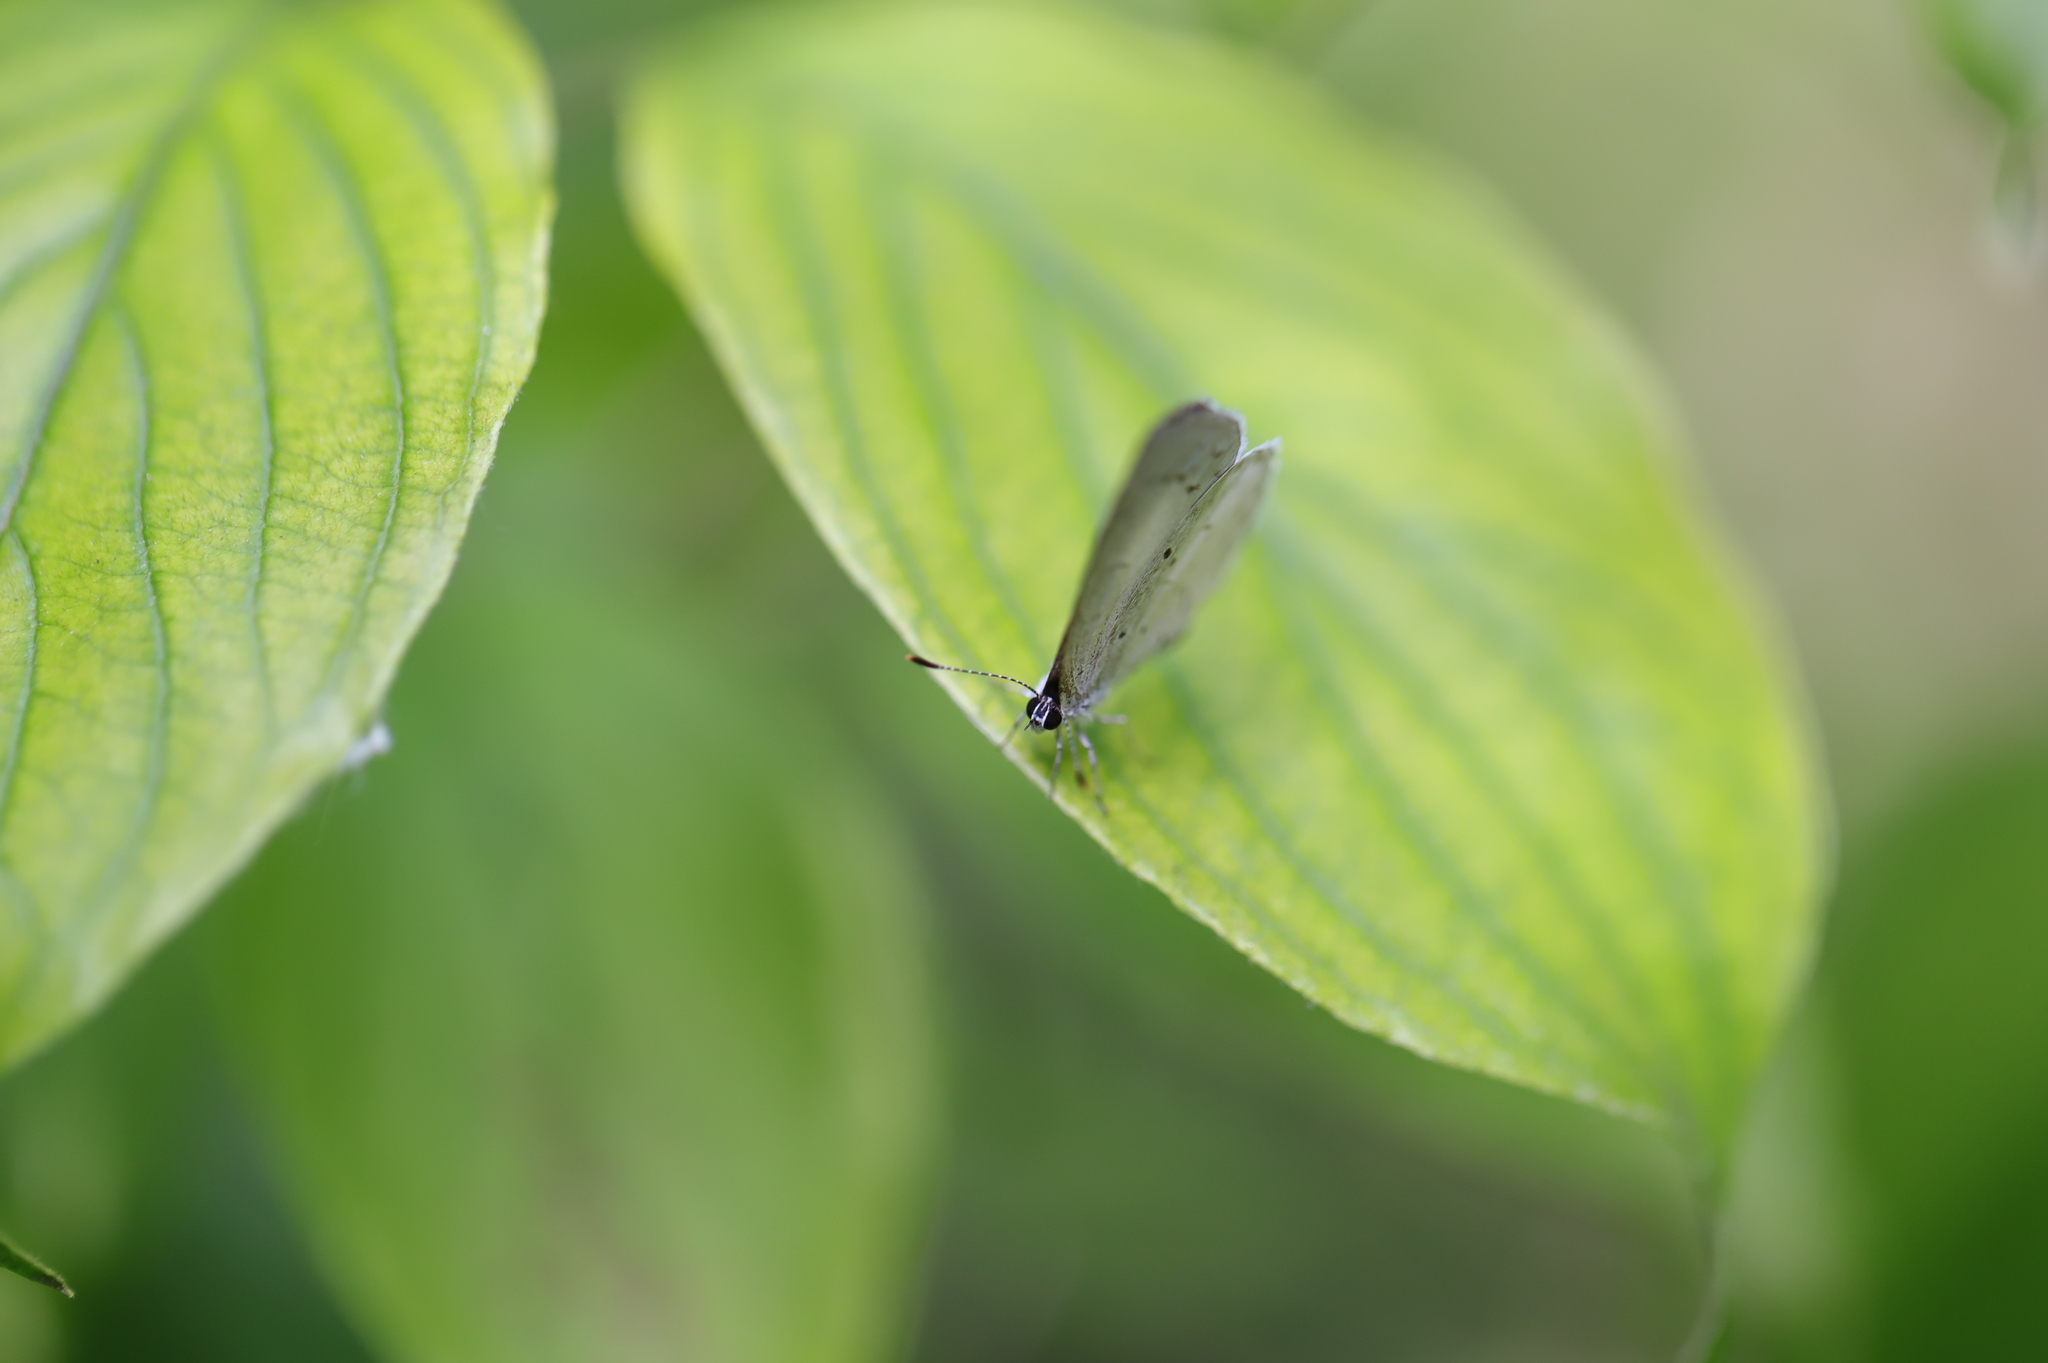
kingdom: Animalia
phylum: Arthropoda
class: Insecta
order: Lepidoptera
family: Lycaenidae
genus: Cyaniris
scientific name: Cyaniris neglecta
